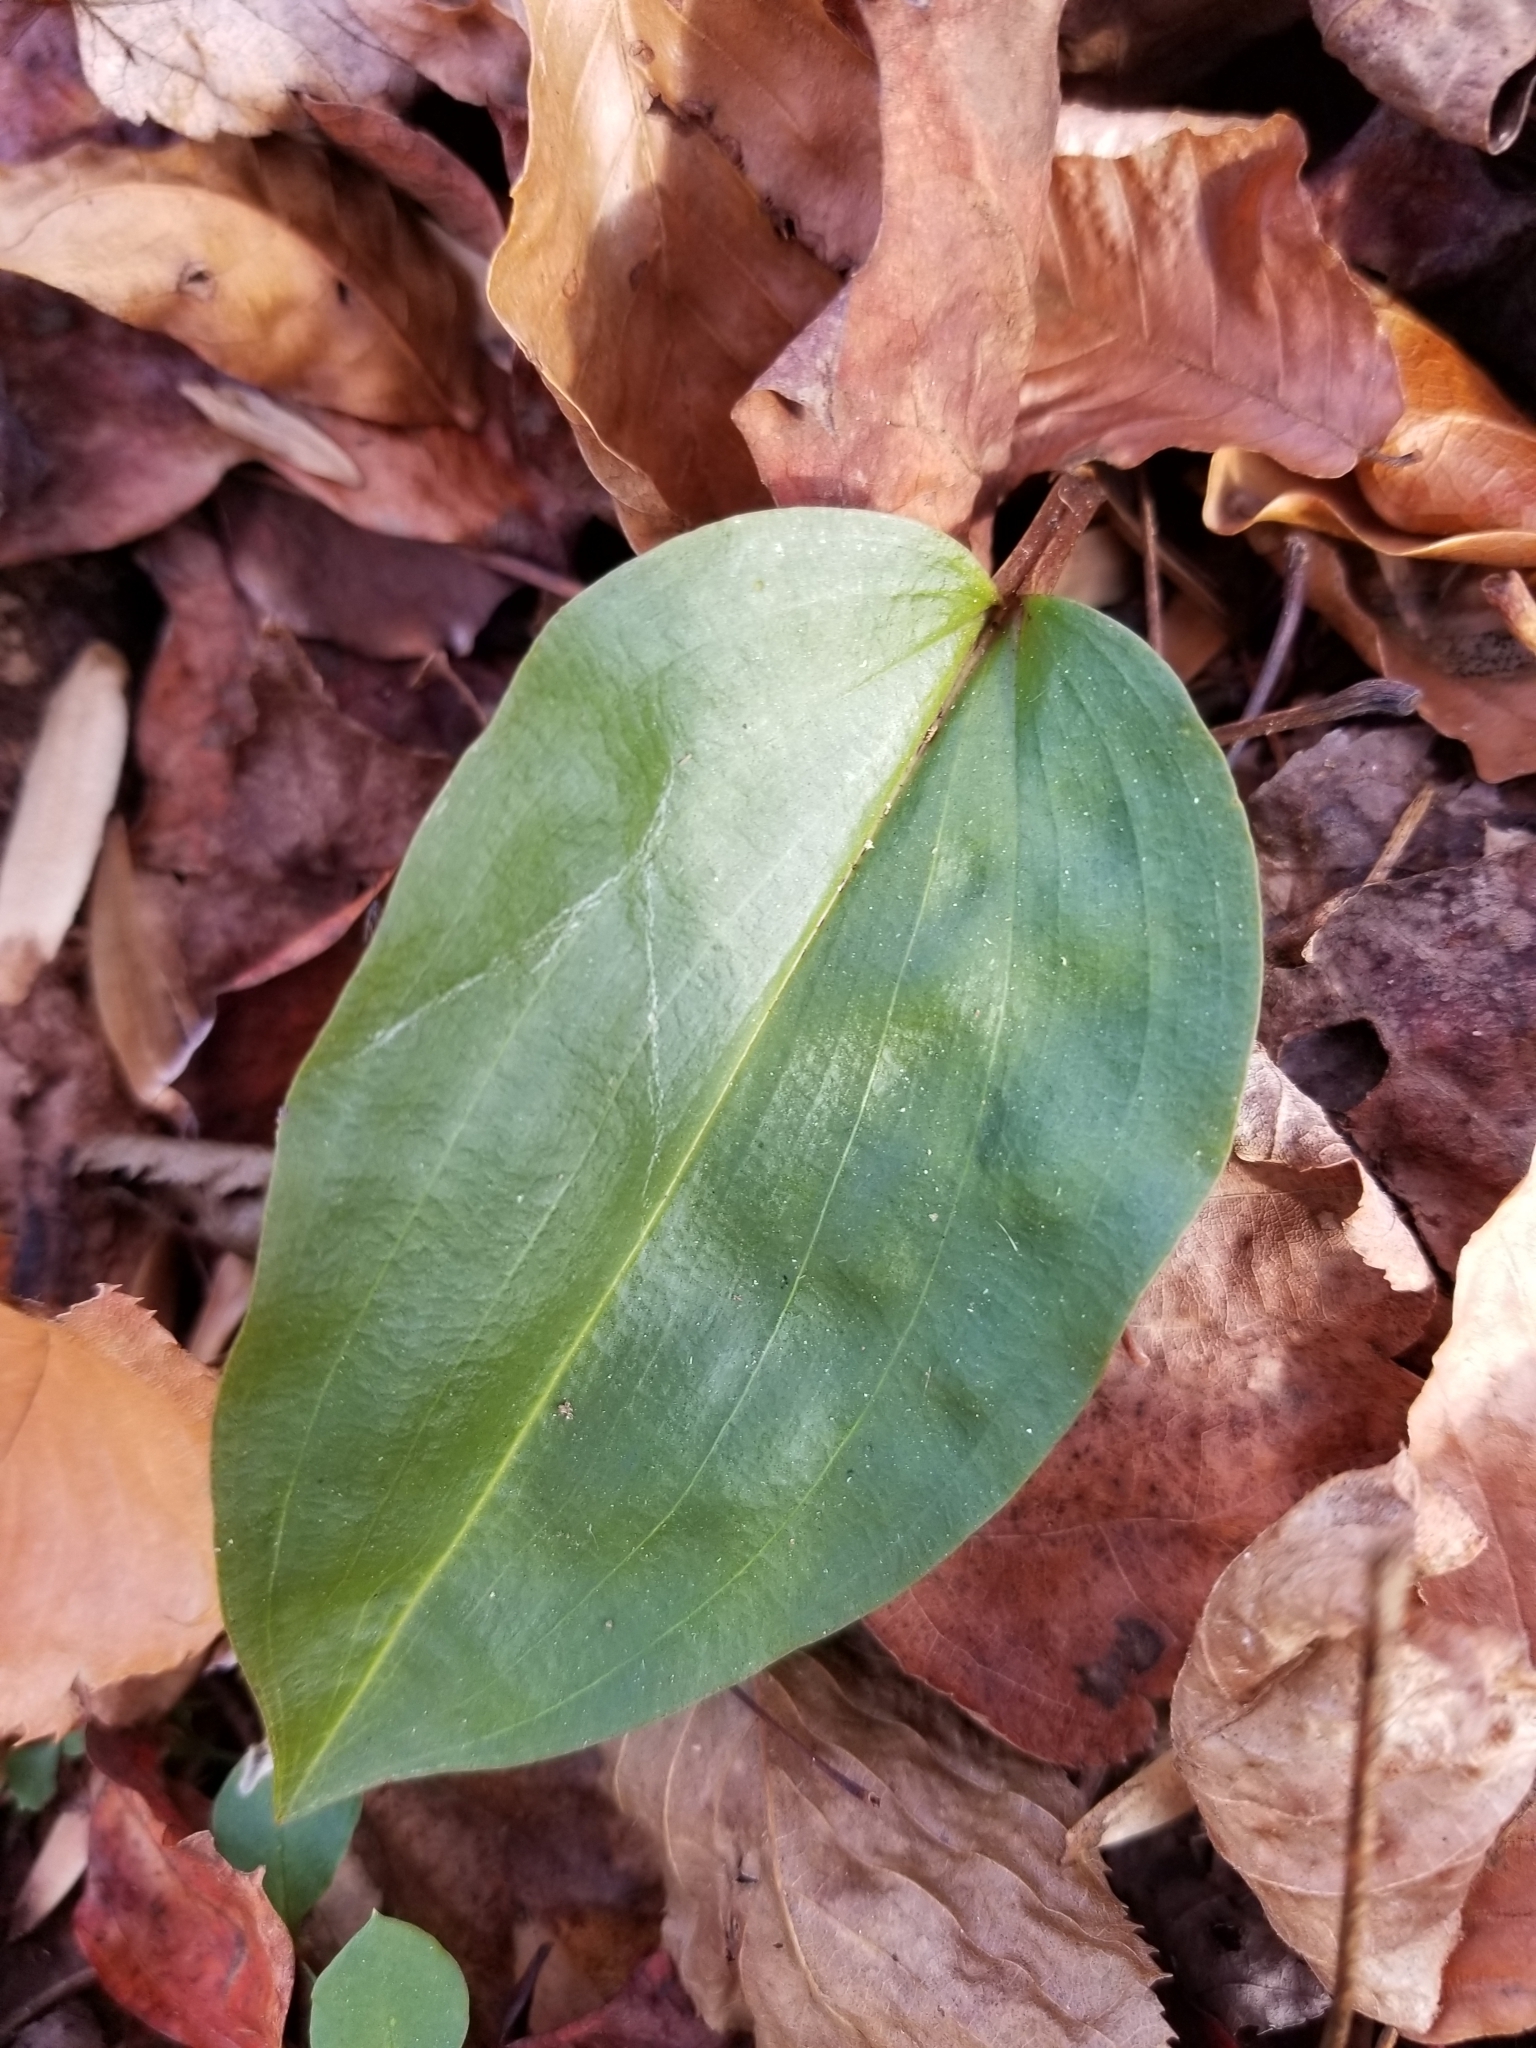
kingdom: Plantae
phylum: Tracheophyta
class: Liliopsida
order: Asparagales
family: Orchidaceae
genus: Tipularia
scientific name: Tipularia discolor
